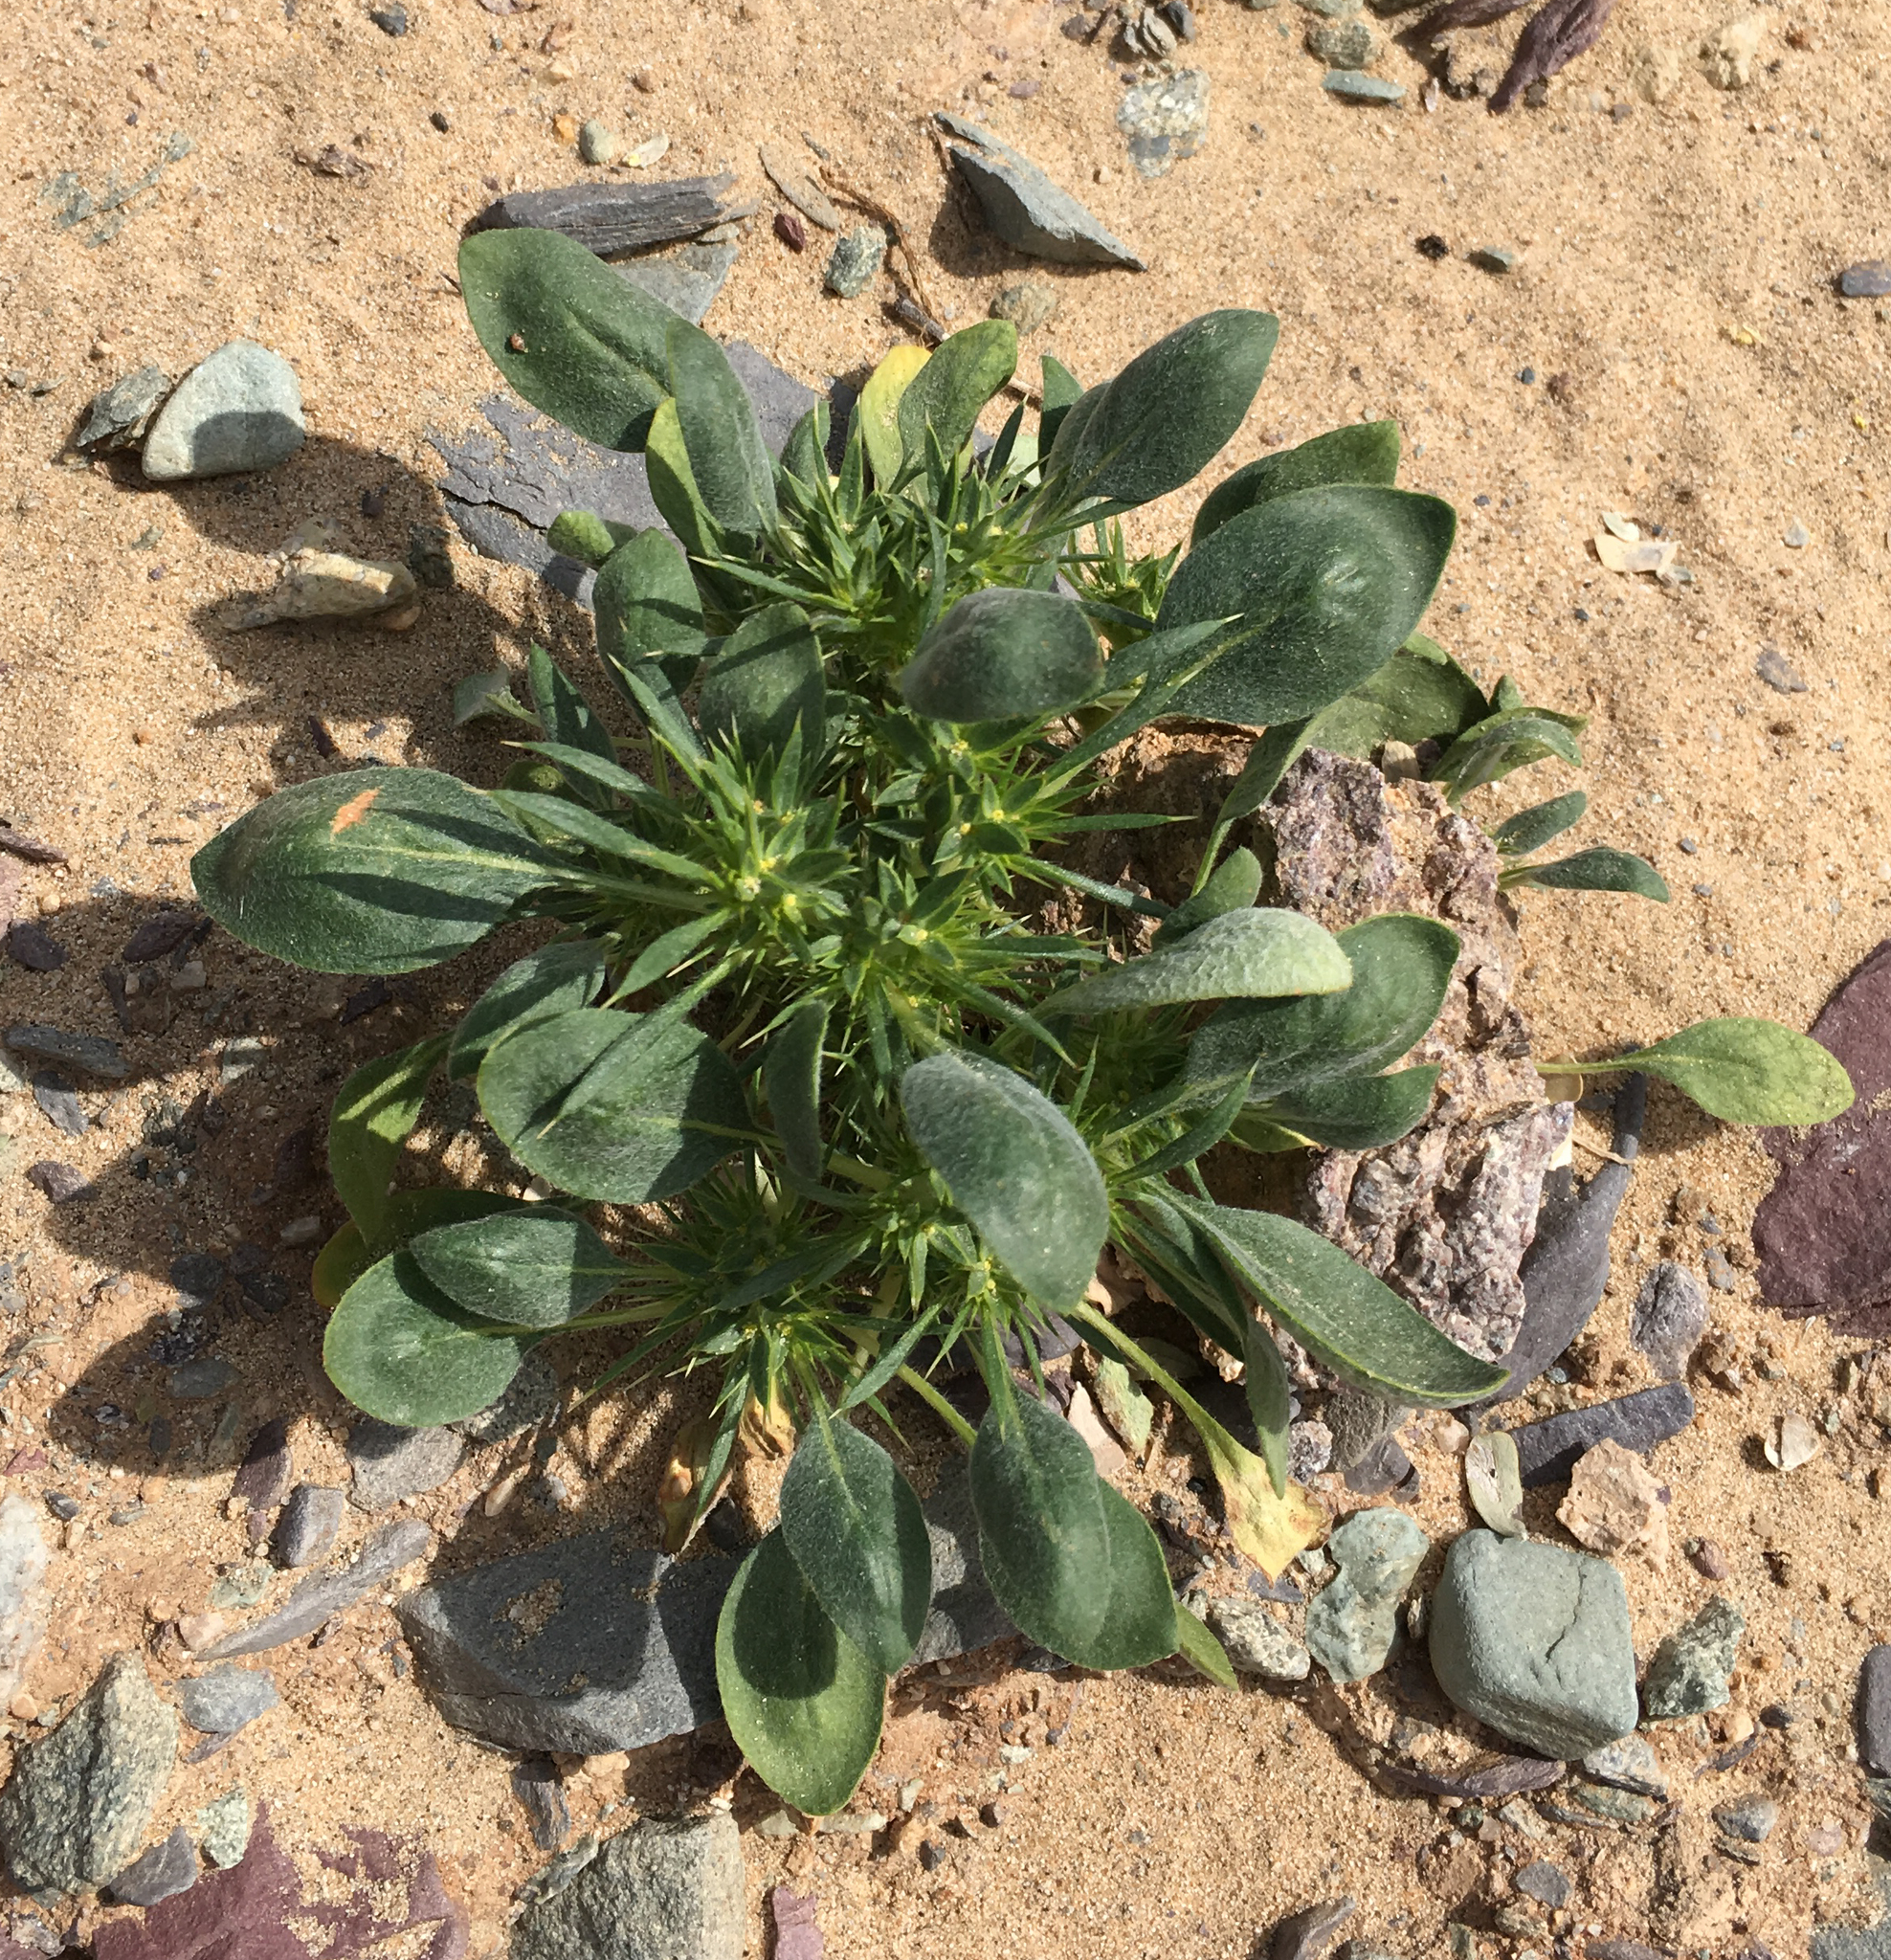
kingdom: Plantae
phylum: Tracheophyta
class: Magnoliopsida
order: Caryophyllales
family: Polygonaceae
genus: Chorizanthe
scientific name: Chorizanthe rigida
